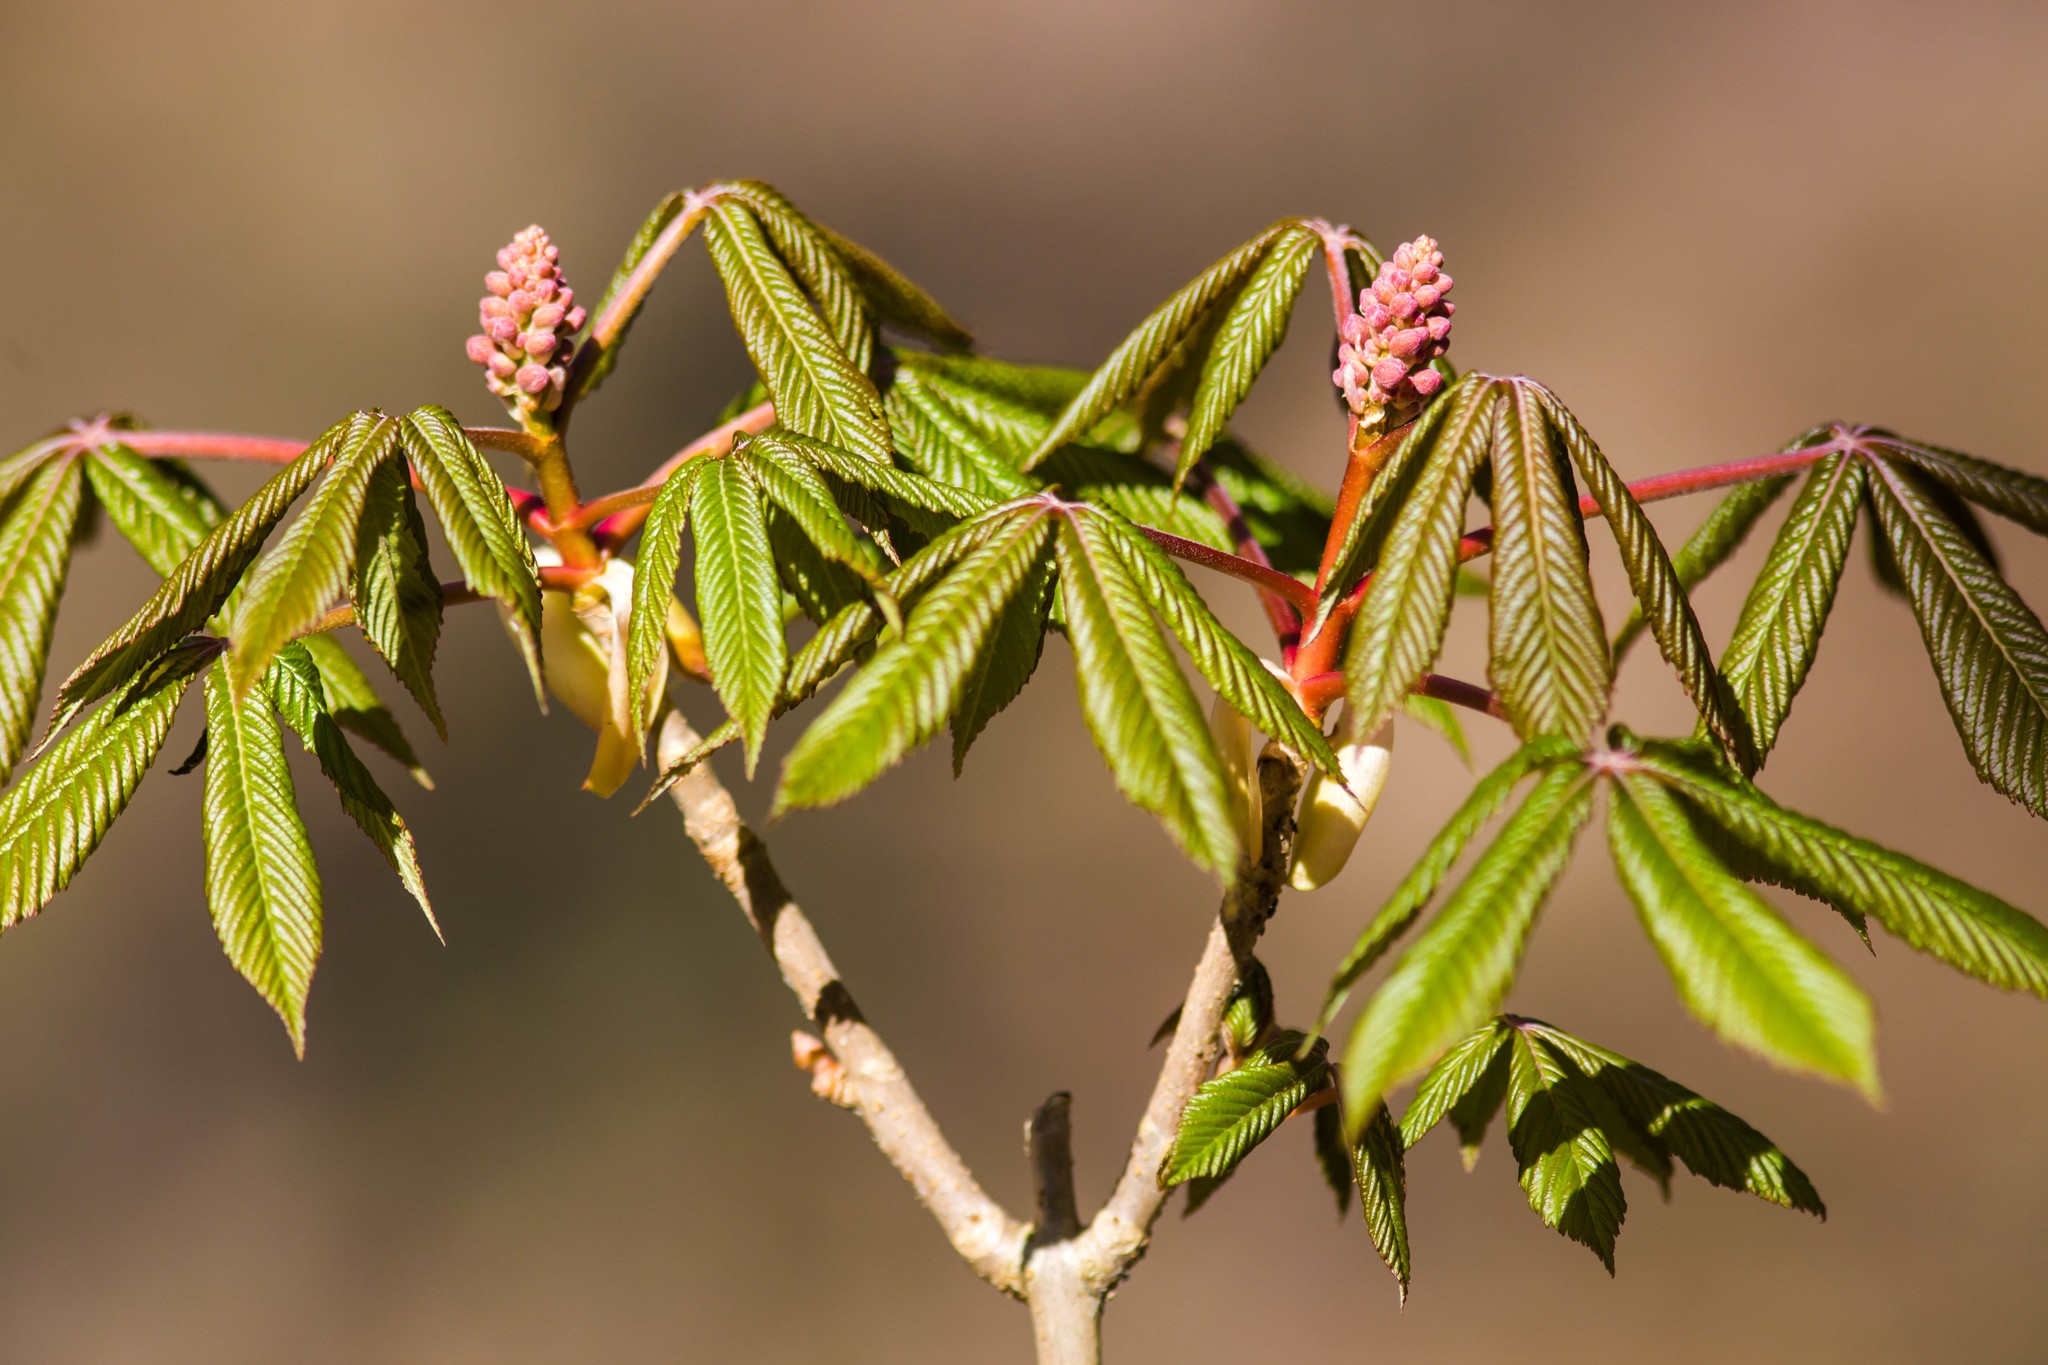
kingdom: Plantae
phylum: Tracheophyta
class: Magnoliopsida
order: Sapindales
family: Sapindaceae
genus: Aesculus
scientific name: Aesculus pavia
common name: Red buckeye
